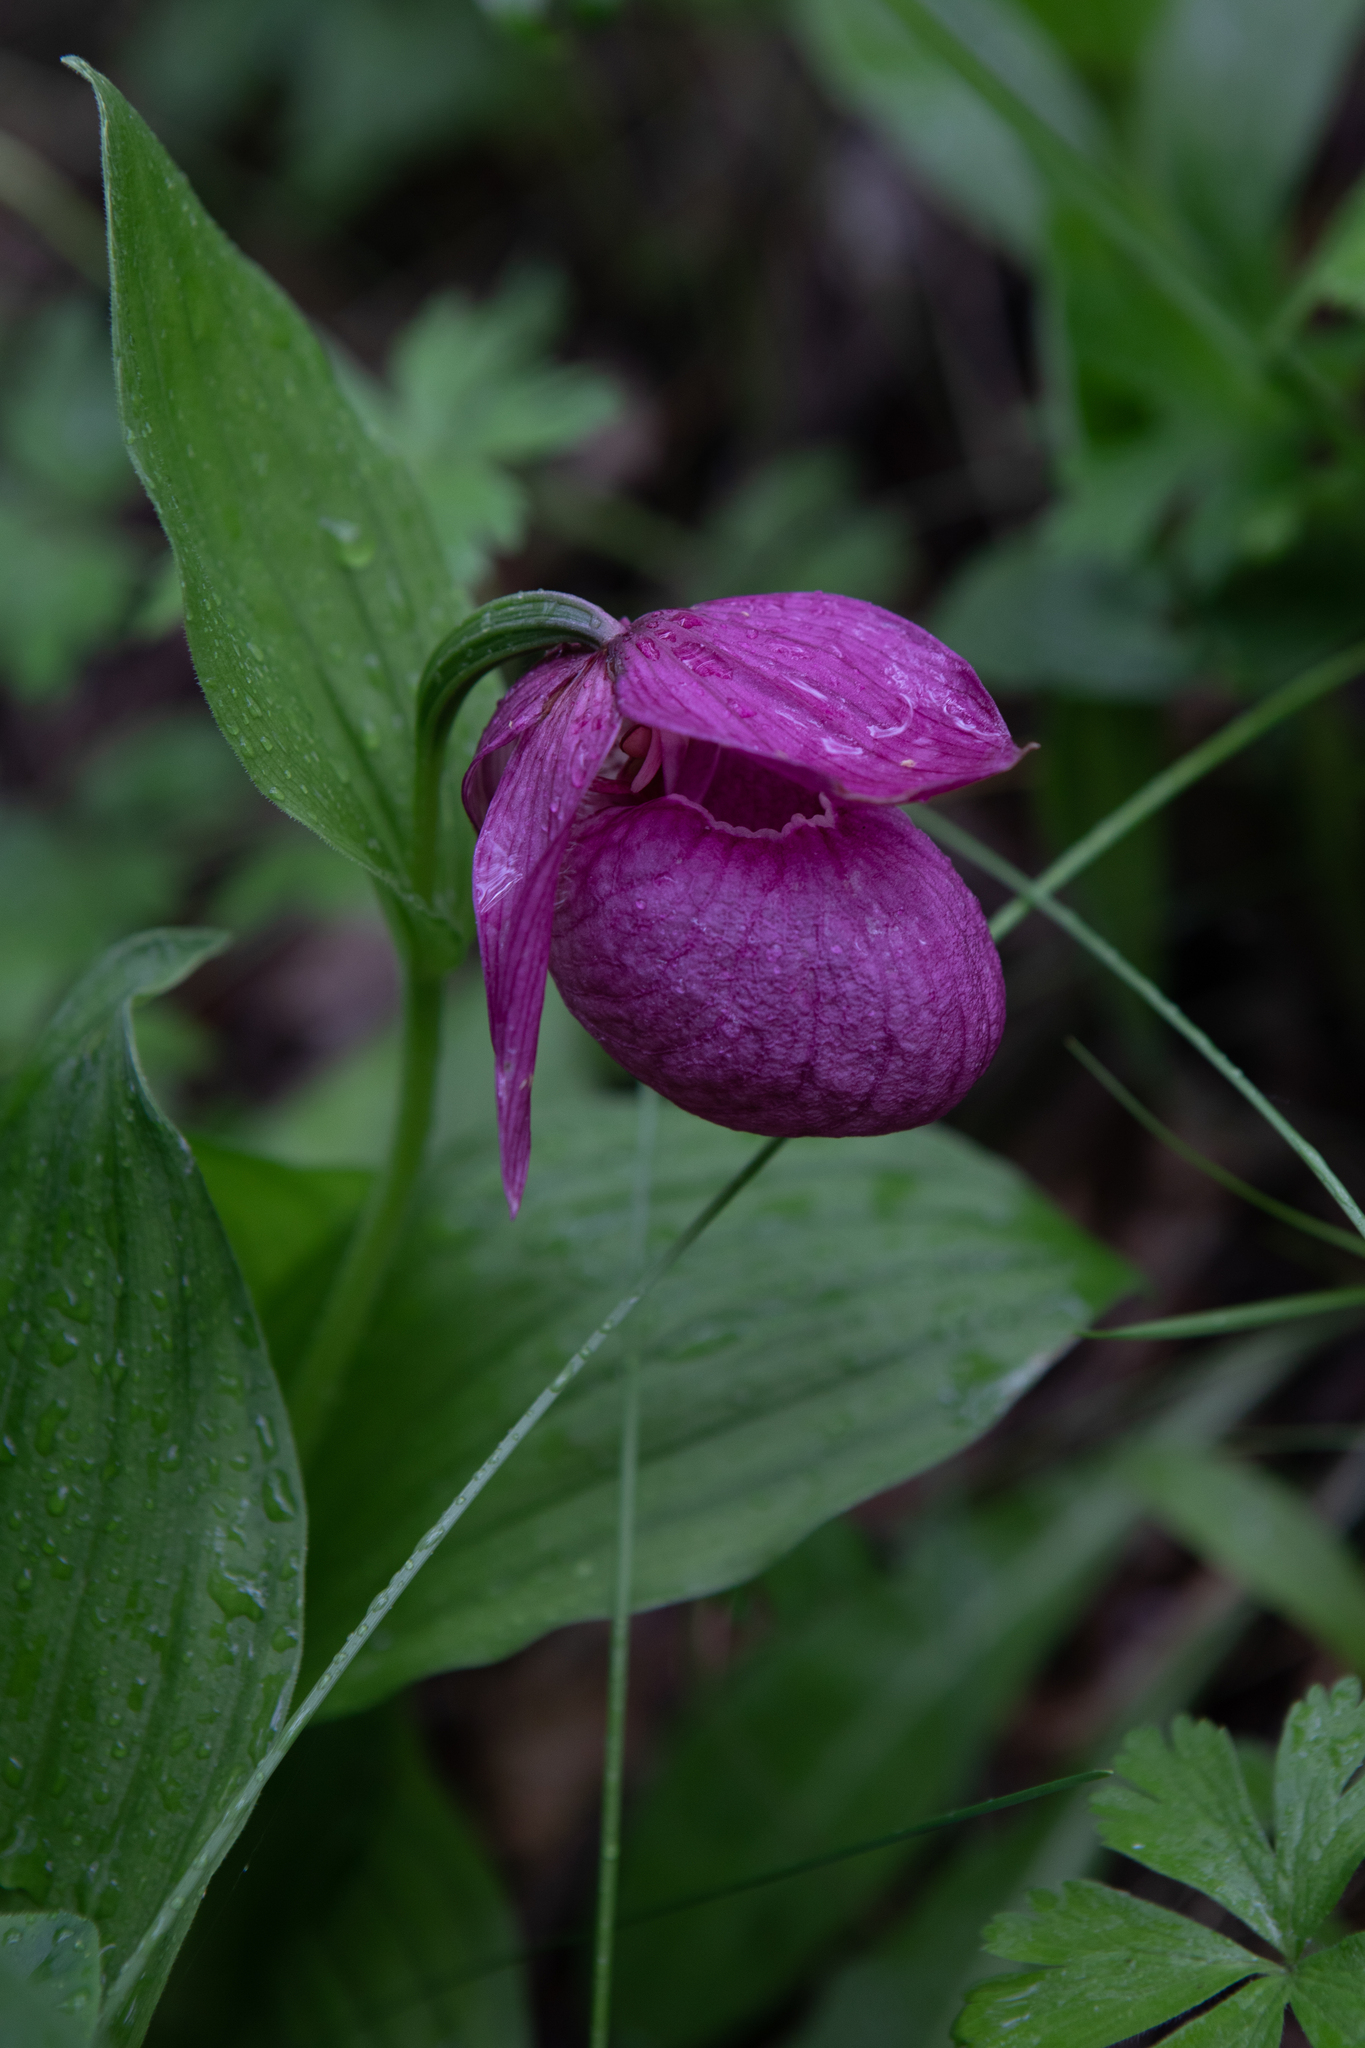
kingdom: Plantae
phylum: Tracheophyta
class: Liliopsida
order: Asparagales
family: Orchidaceae
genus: Cypripedium
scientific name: Cypripedium macranthos
